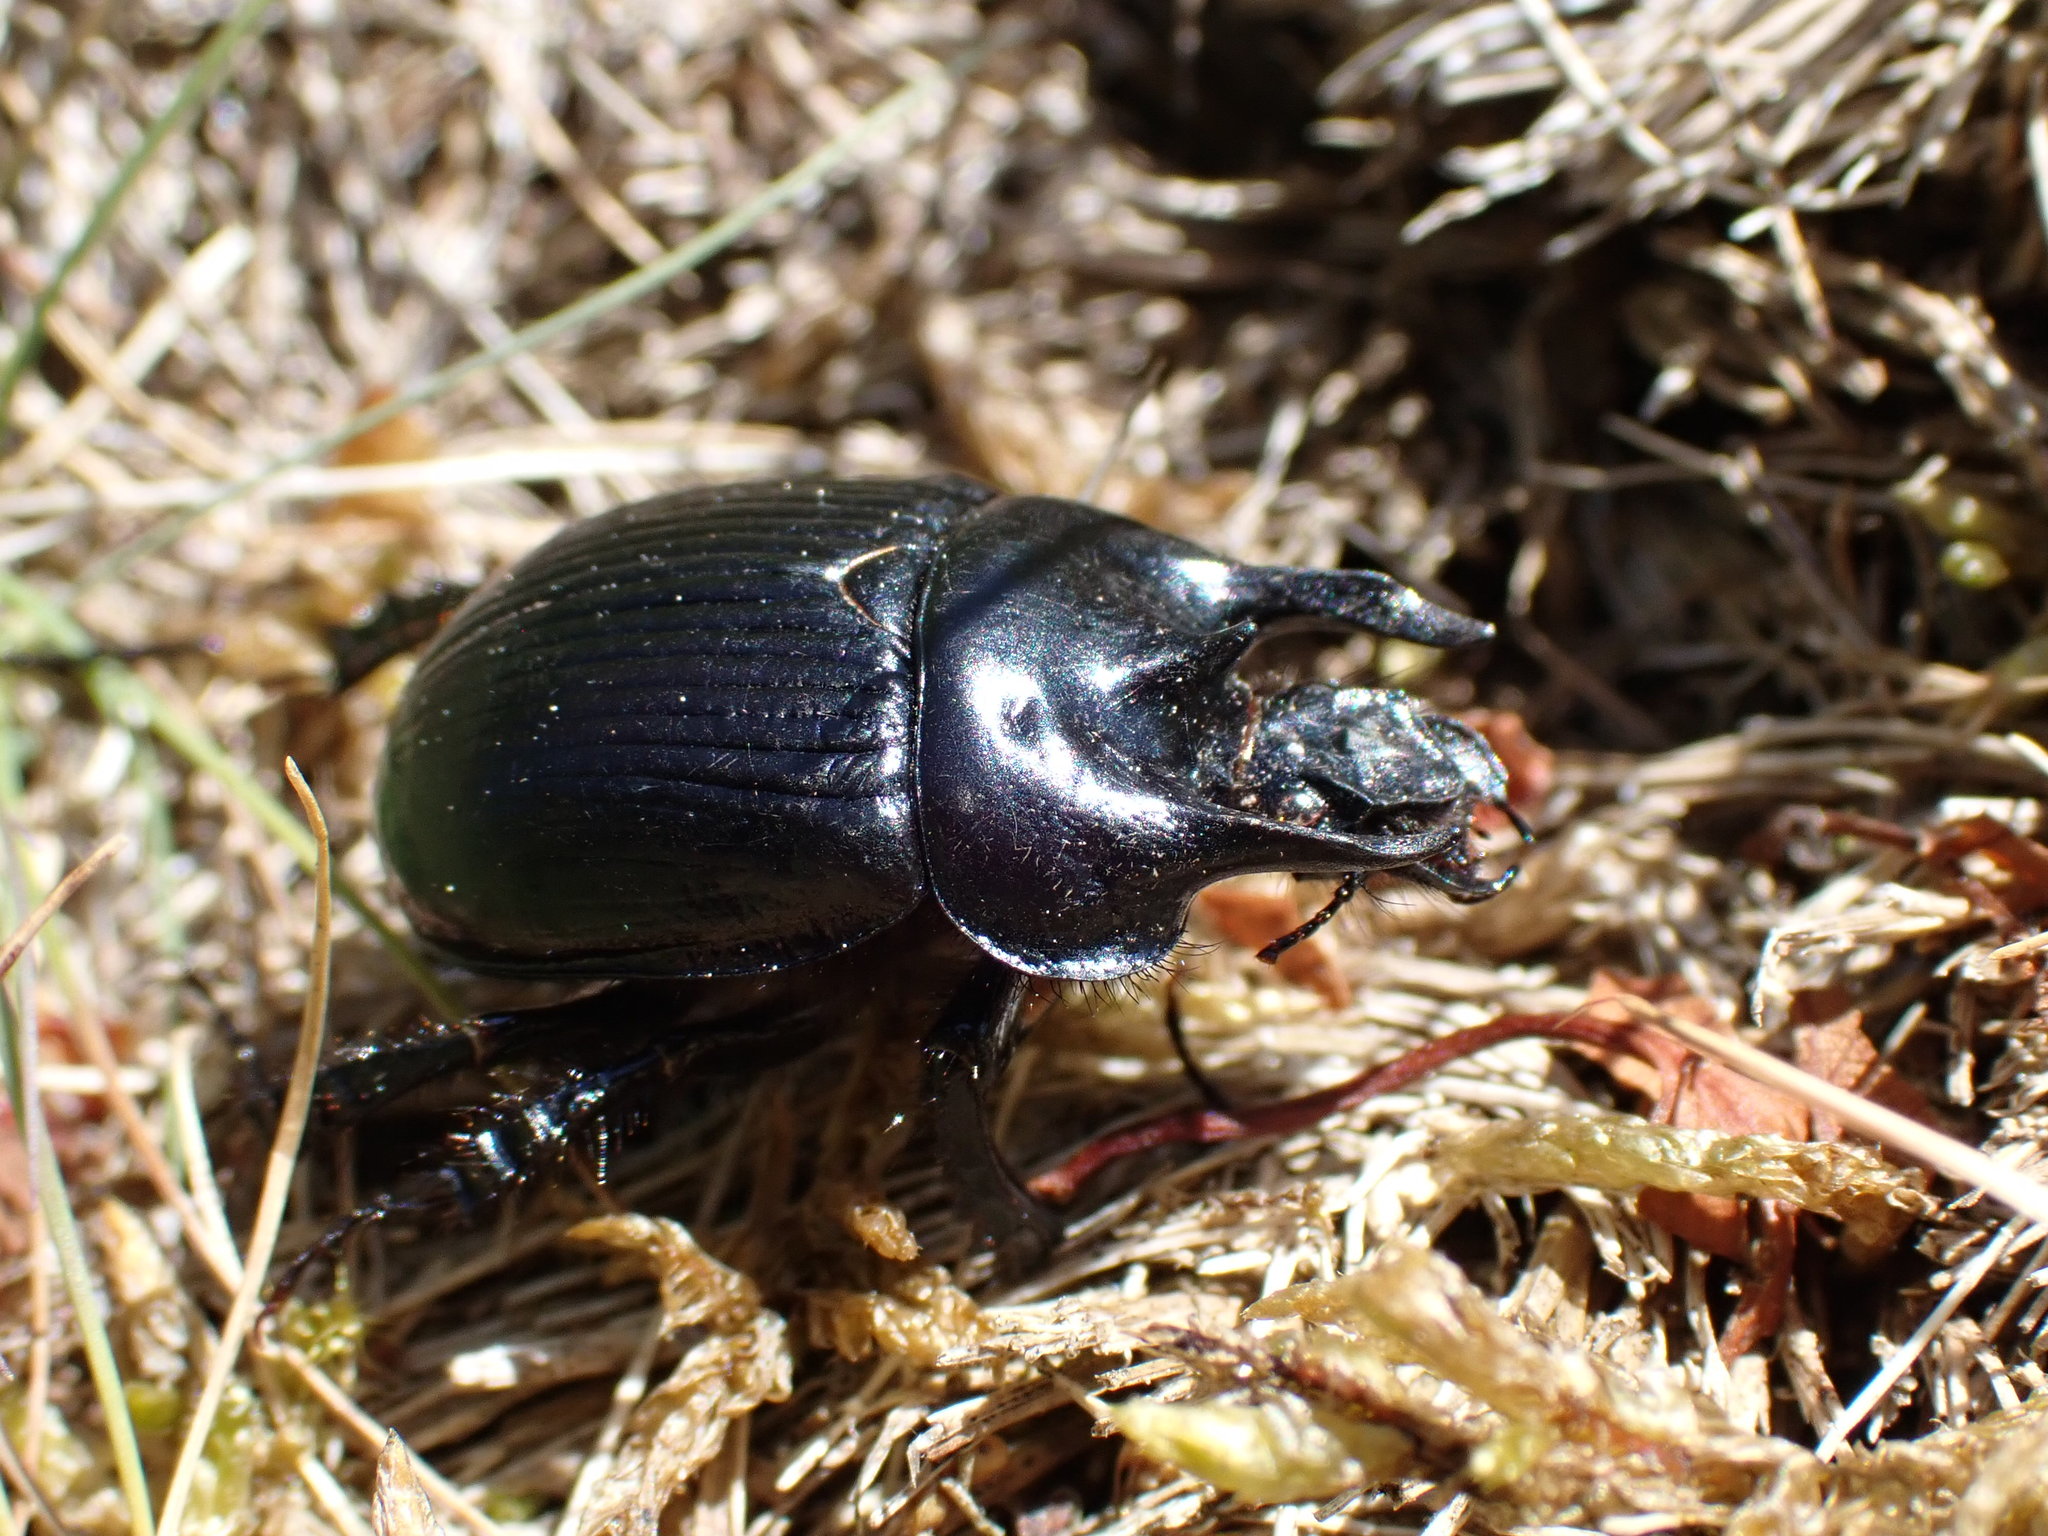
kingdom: Animalia
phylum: Arthropoda
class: Insecta
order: Coleoptera
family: Geotrupidae
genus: Typhaeus
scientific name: Typhaeus typhoeus
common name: Minotaur beetle
